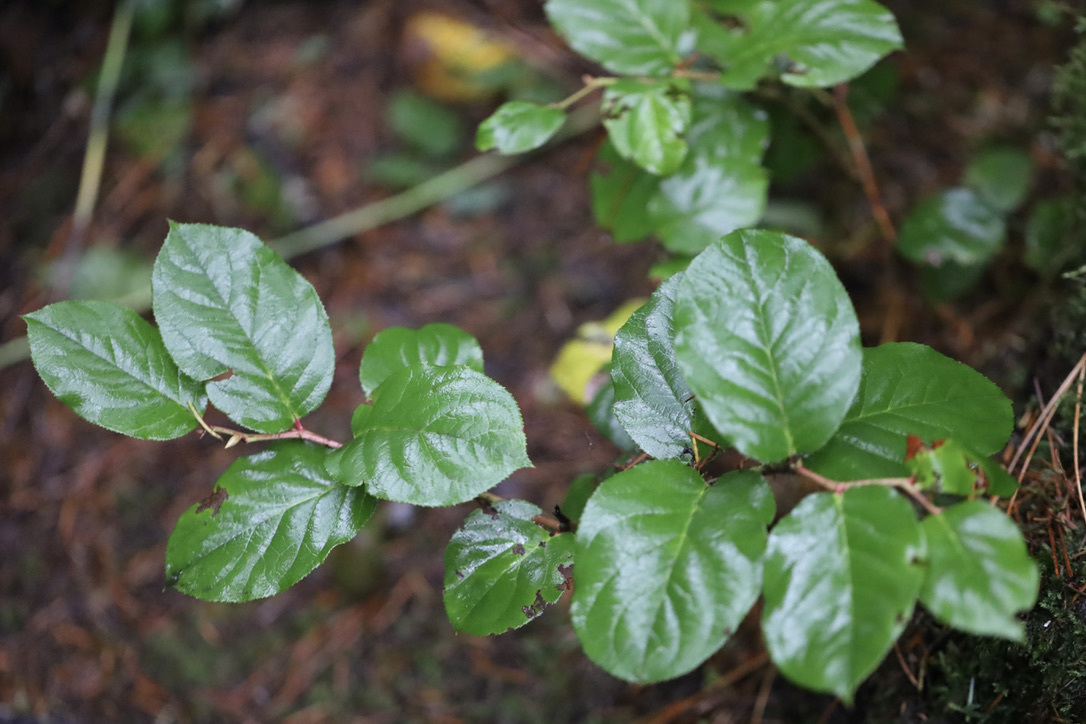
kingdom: Plantae
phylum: Tracheophyta
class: Magnoliopsida
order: Ericales
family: Ericaceae
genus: Gaultheria
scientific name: Gaultheria shallon
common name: Shallon
